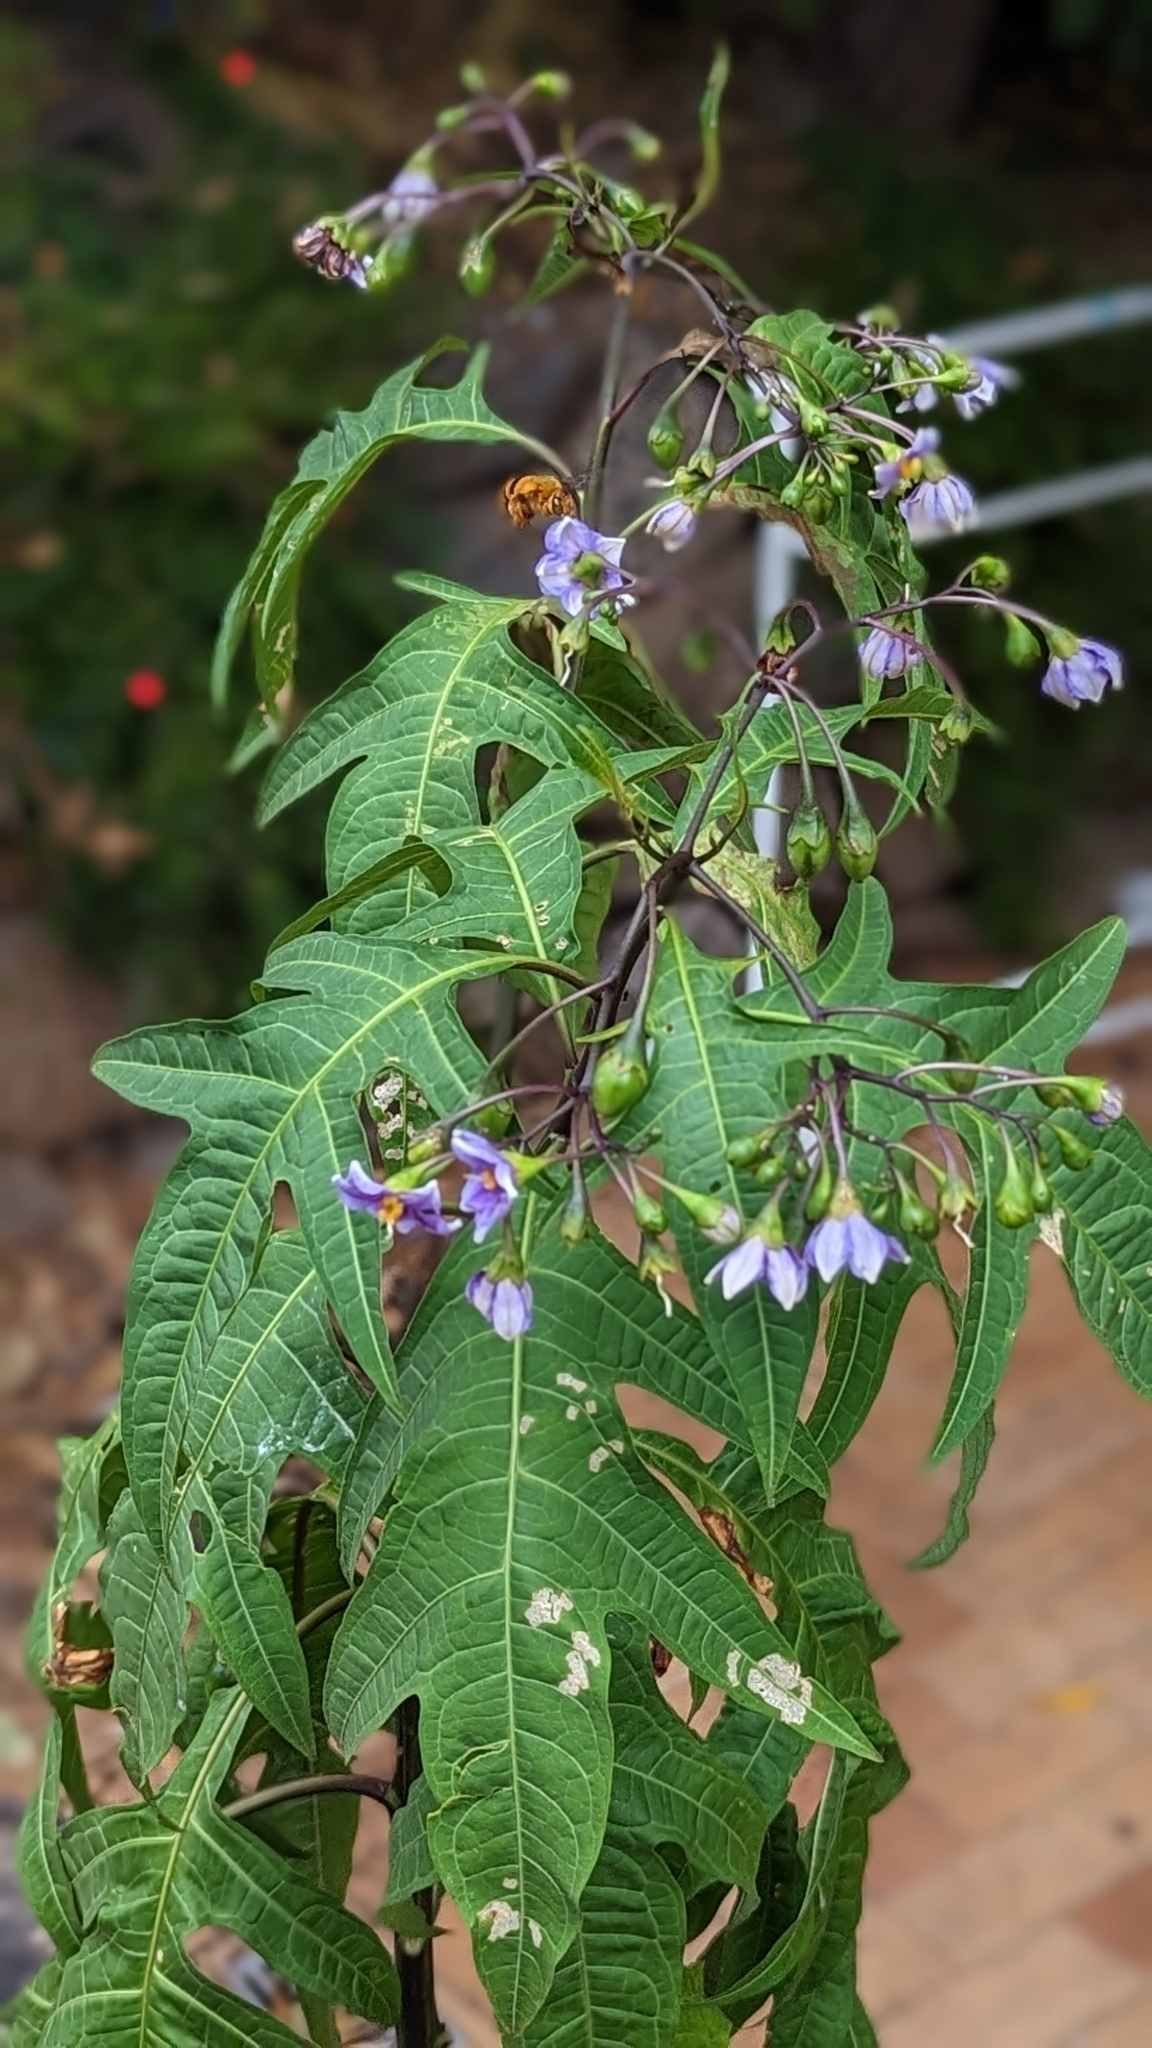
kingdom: Animalia
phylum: Arthropoda
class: Insecta
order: Hymenoptera
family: Apidae
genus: Amegilla
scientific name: Amegilla bombiformis
